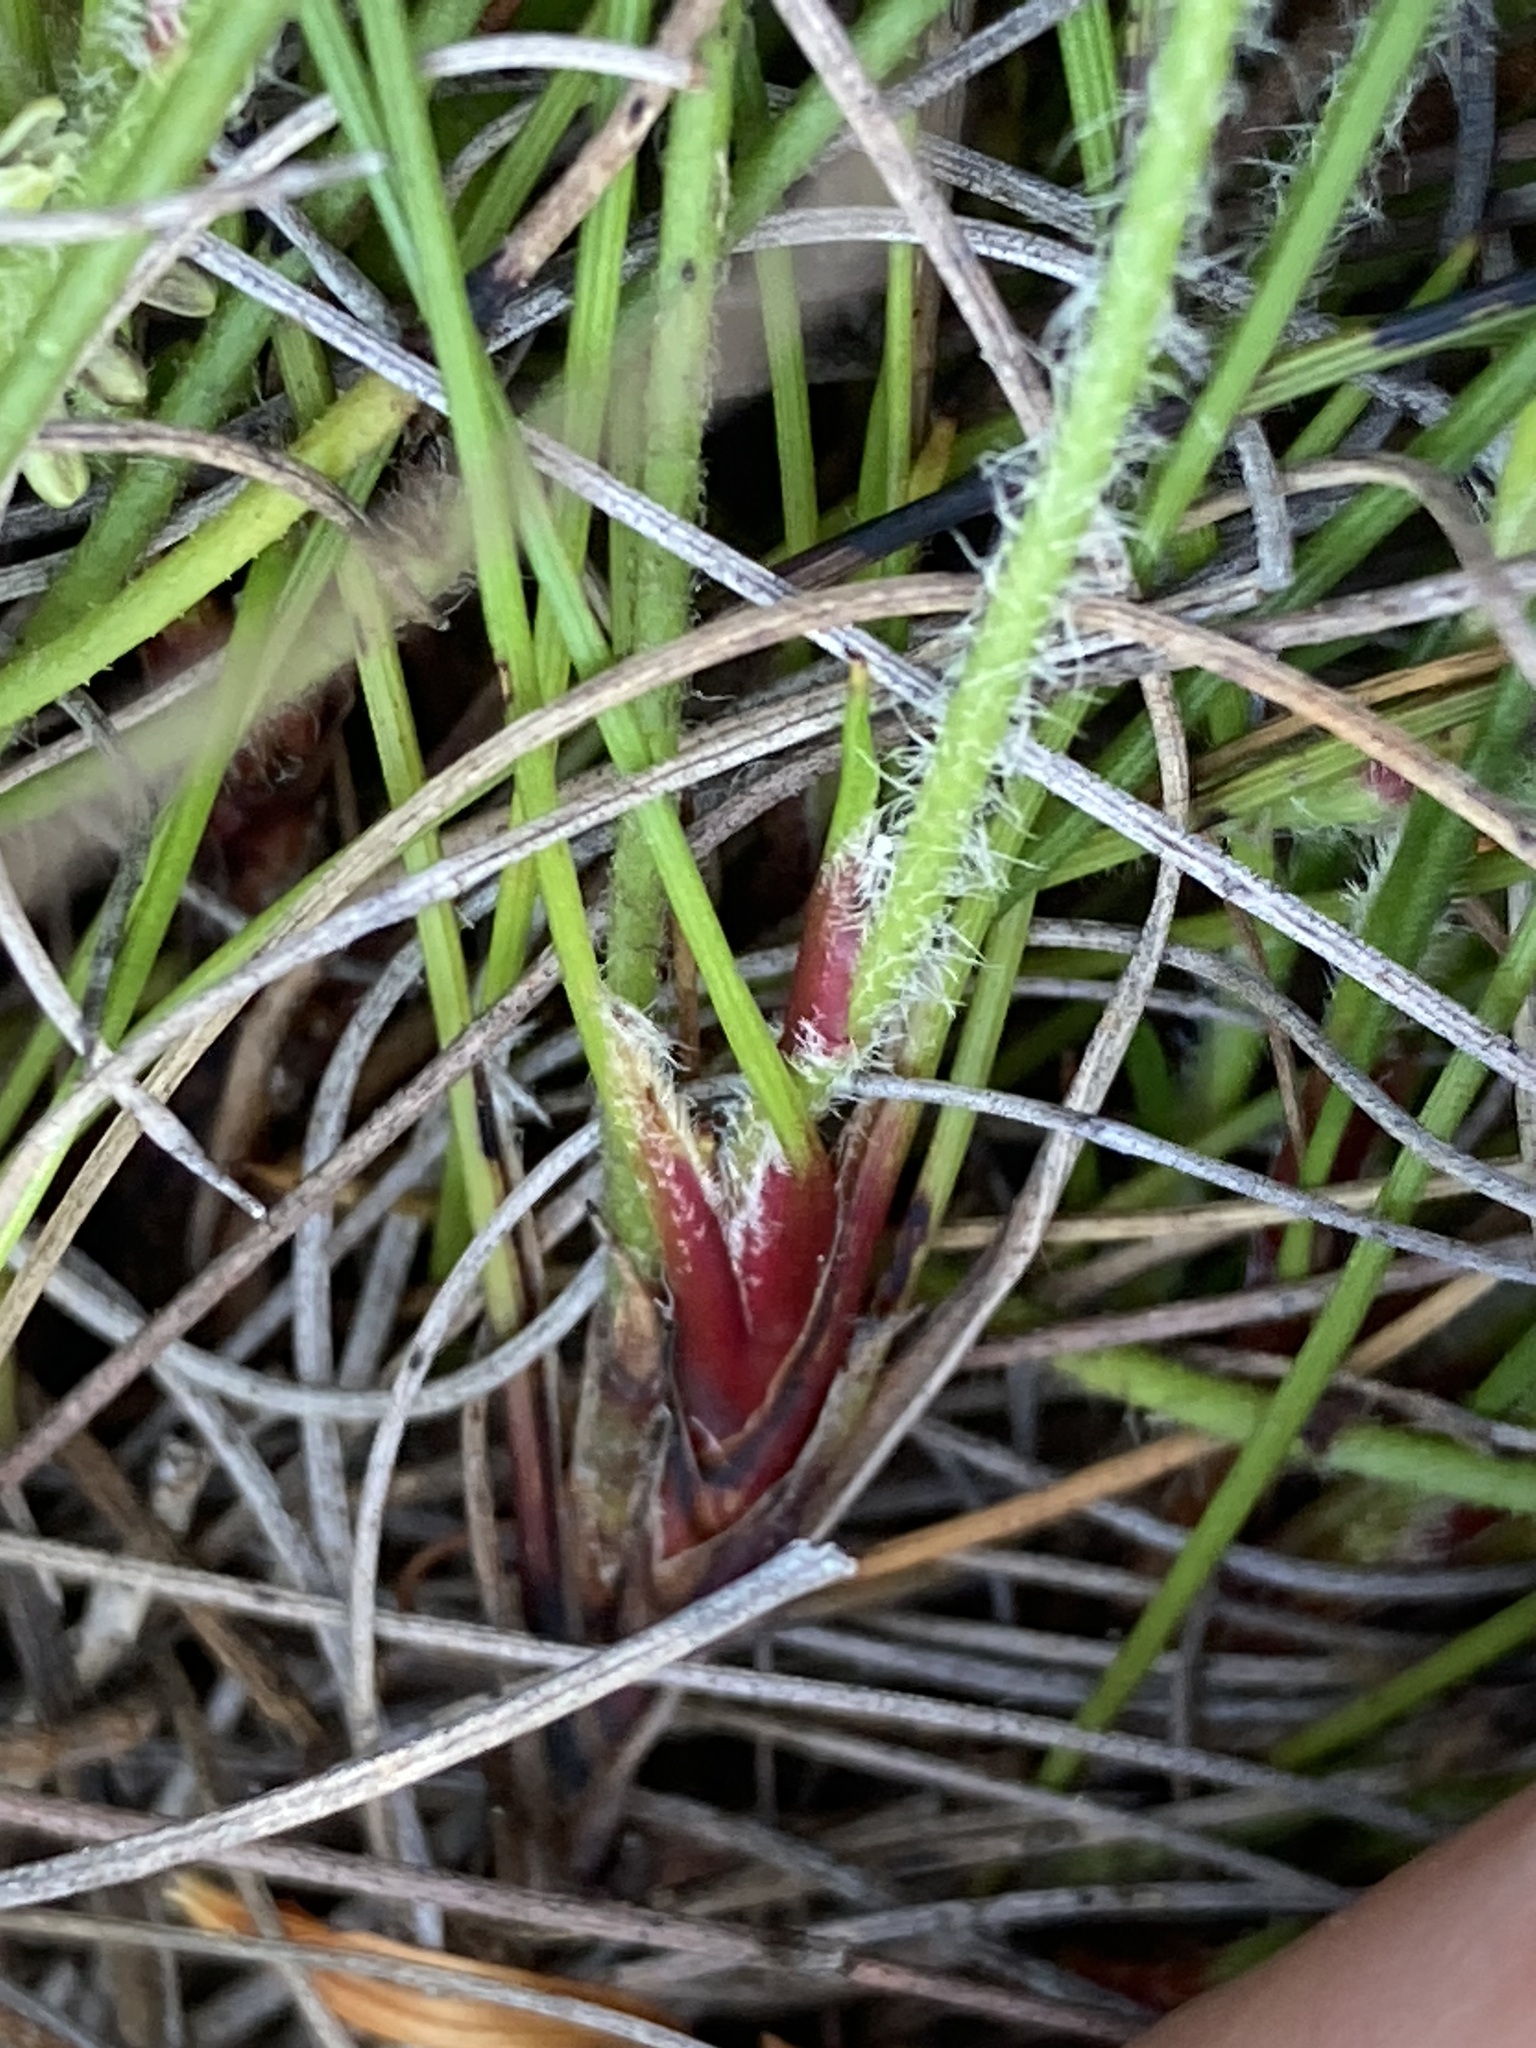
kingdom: Plantae
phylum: Tracheophyta
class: Liliopsida
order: Commelinales
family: Haemodoraceae
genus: Phlebocarya
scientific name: Phlebocarya pilosissima
